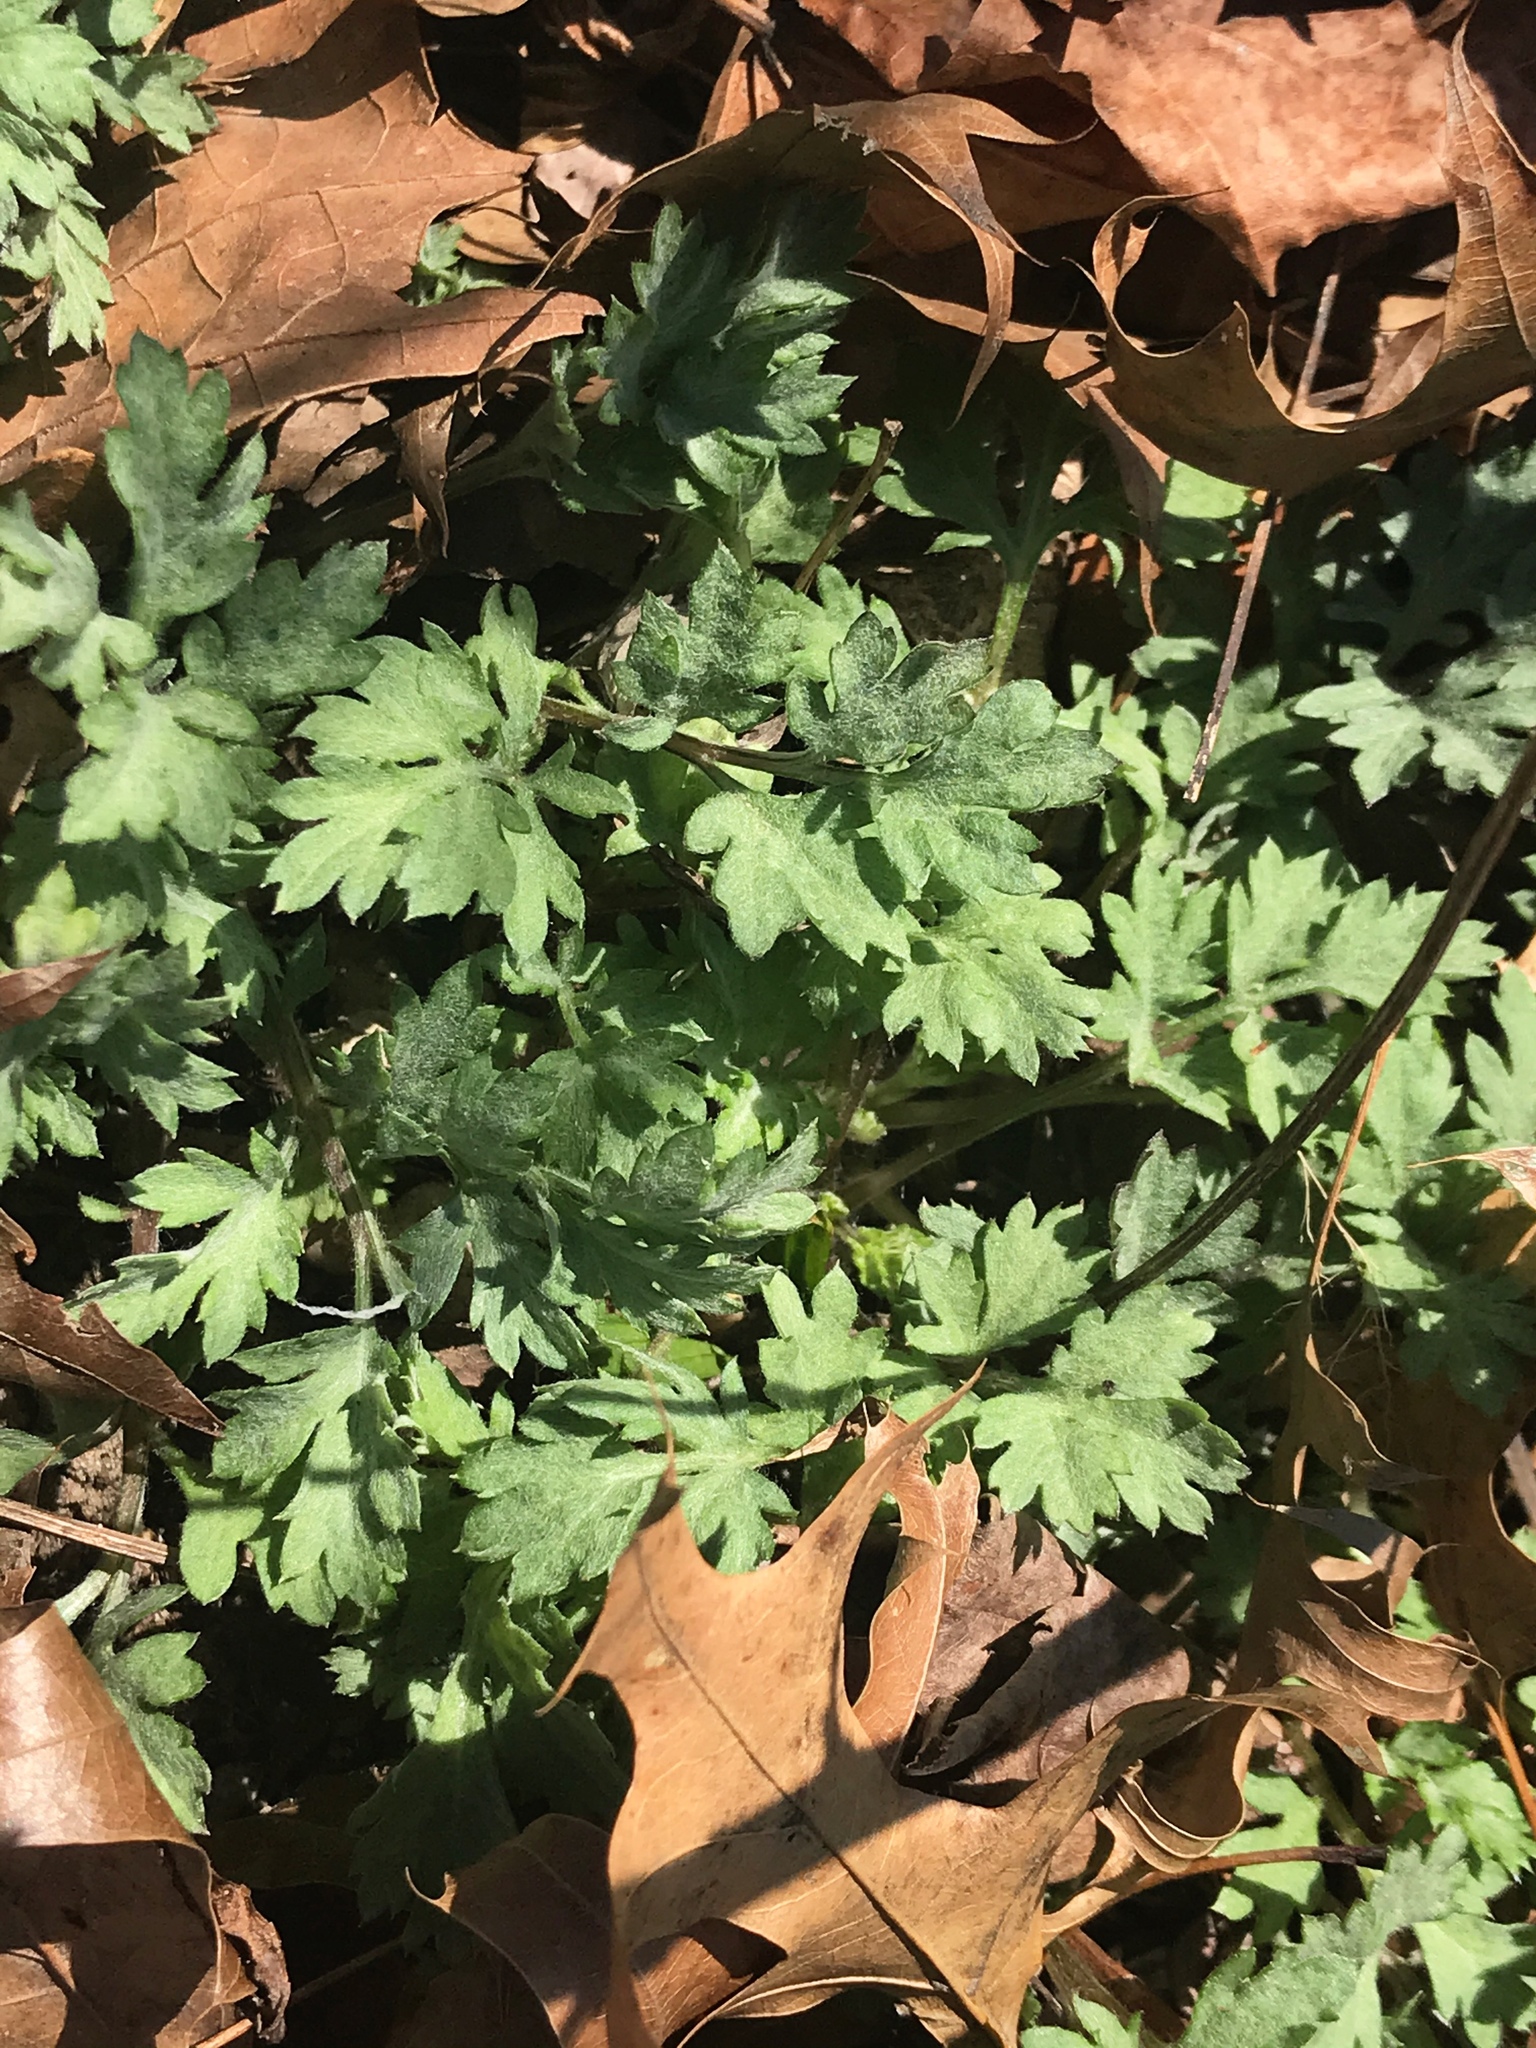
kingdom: Plantae
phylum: Tracheophyta
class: Magnoliopsida
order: Asterales
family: Asteraceae
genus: Artemisia
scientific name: Artemisia vulgaris
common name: Mugwort
